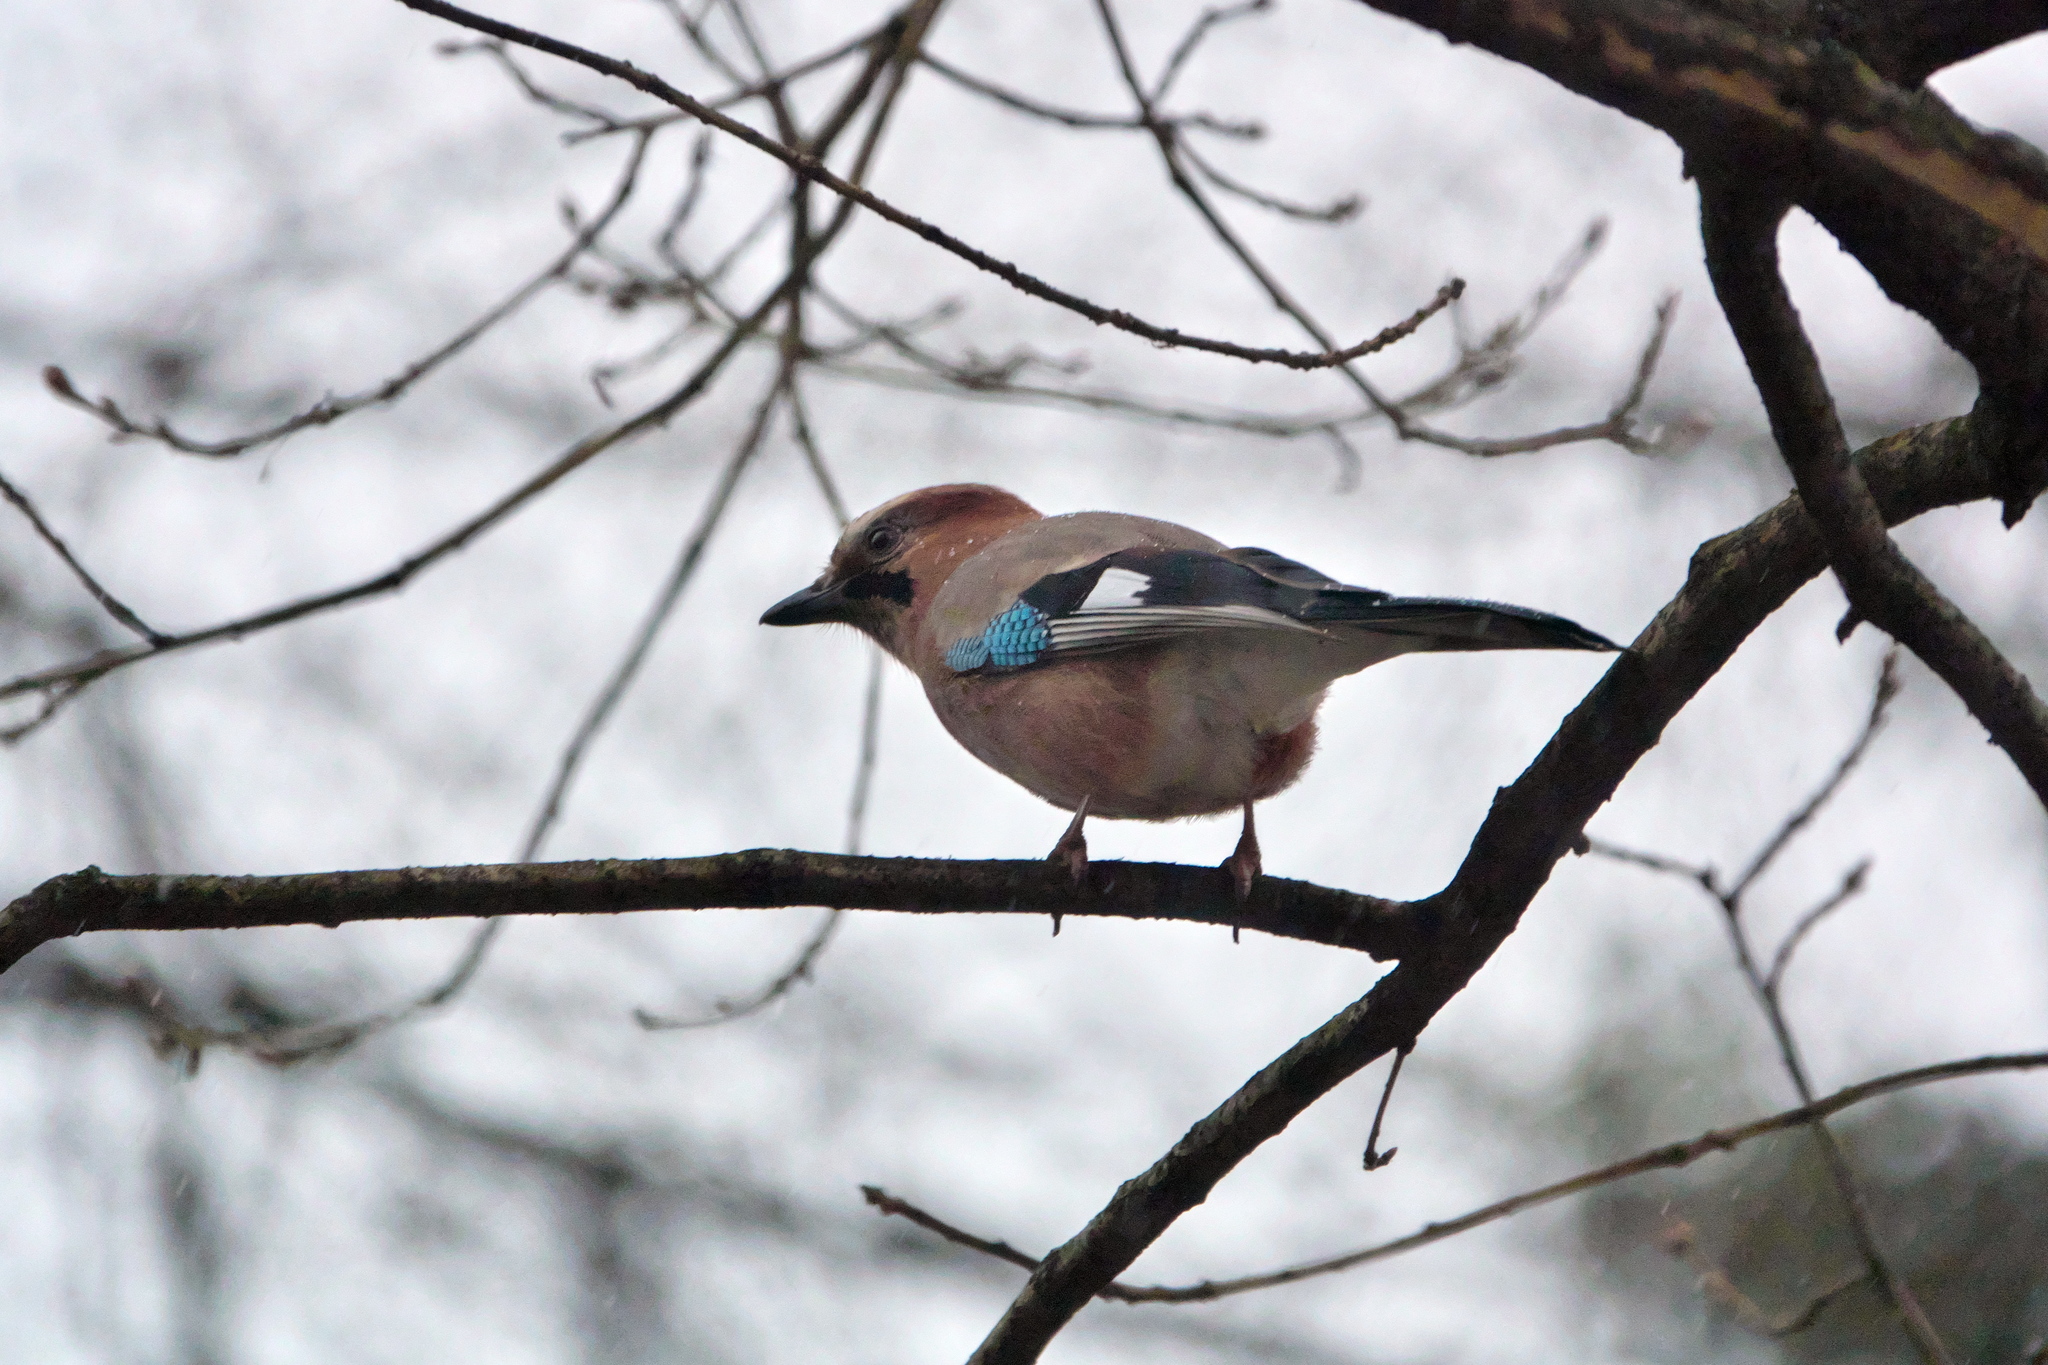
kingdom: Animalia
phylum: Chordata
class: Aves
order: Passeriformes
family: Corvidae
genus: Garrulus
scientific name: Garrulus glandarius
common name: Eurasian jay
